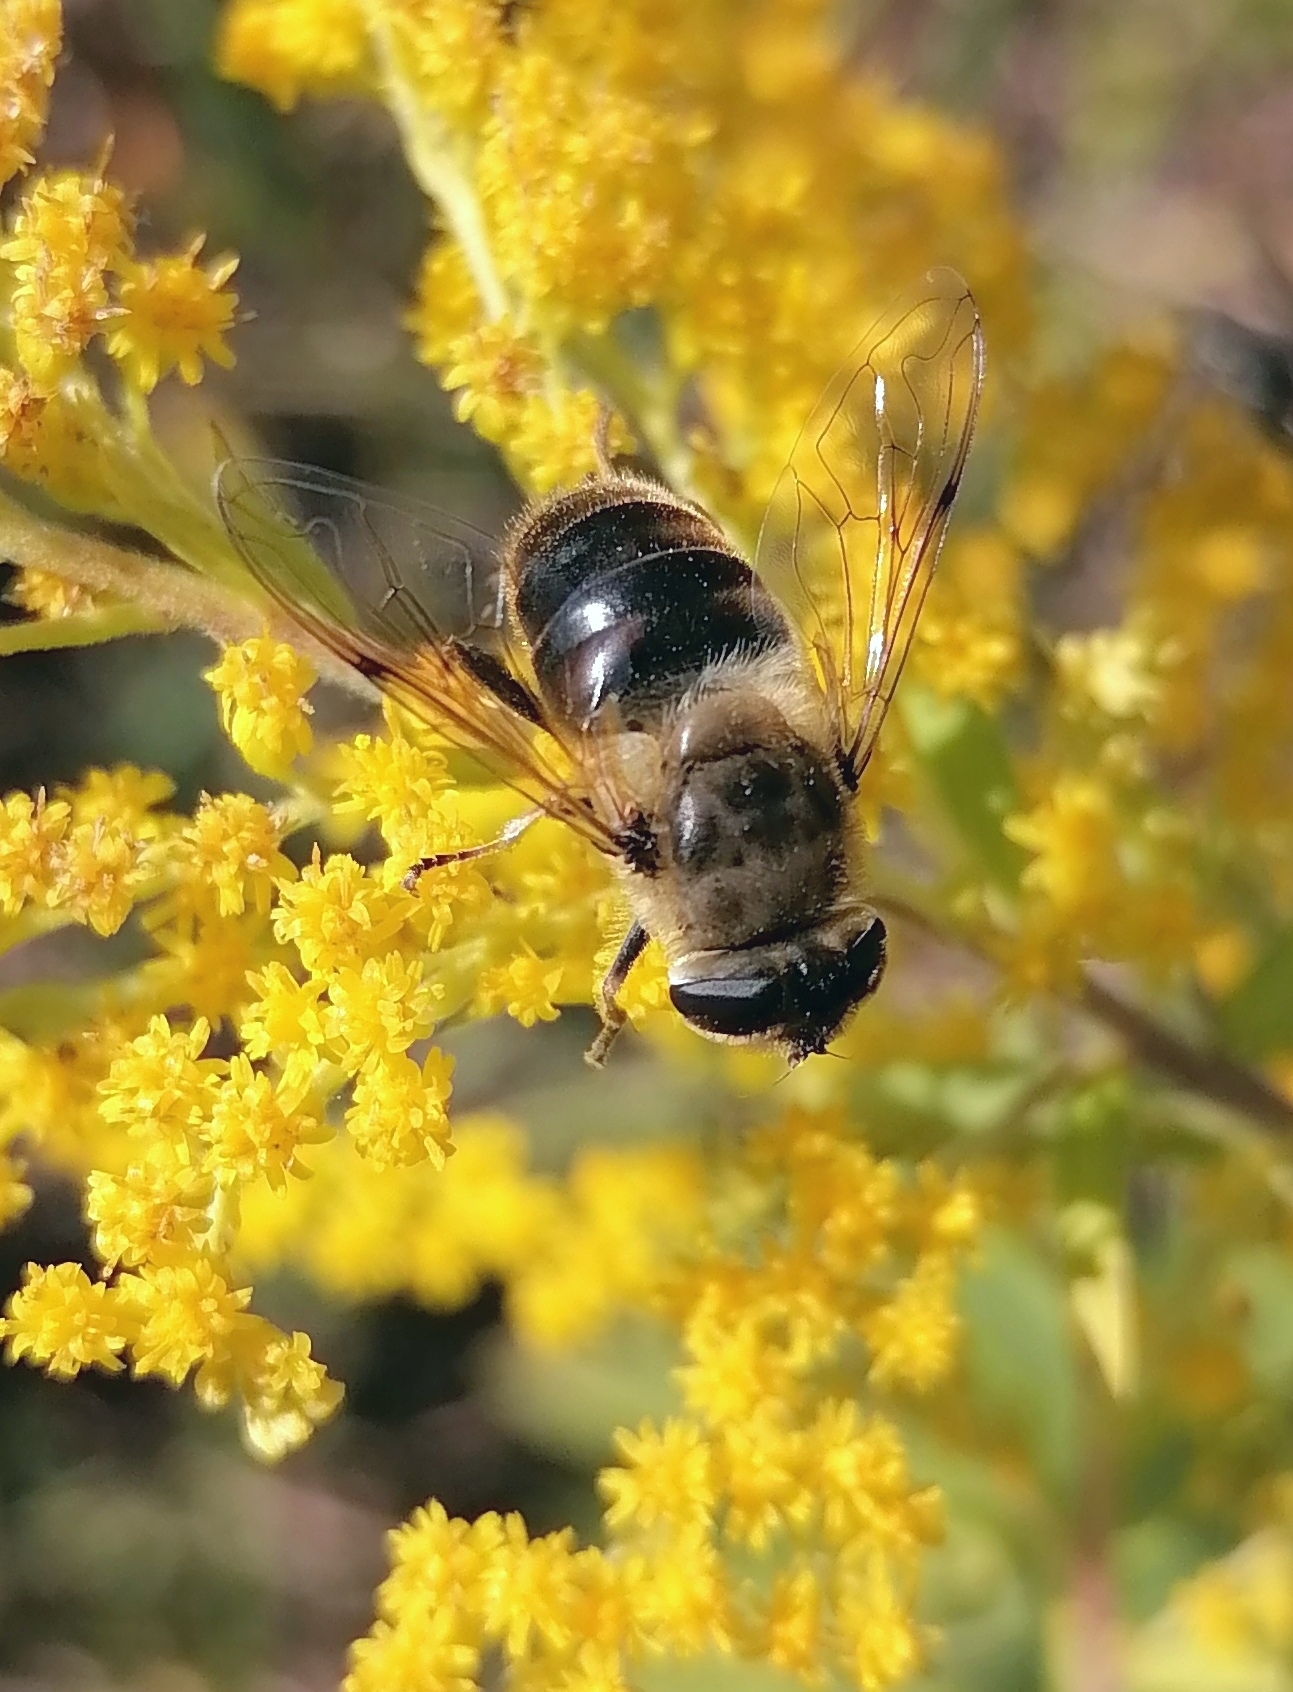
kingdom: Animalia
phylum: Arthropoda
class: Insecta
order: Diptera
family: Syrphidae
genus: Eristalis
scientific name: Eristalis tenax
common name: Drone fly
